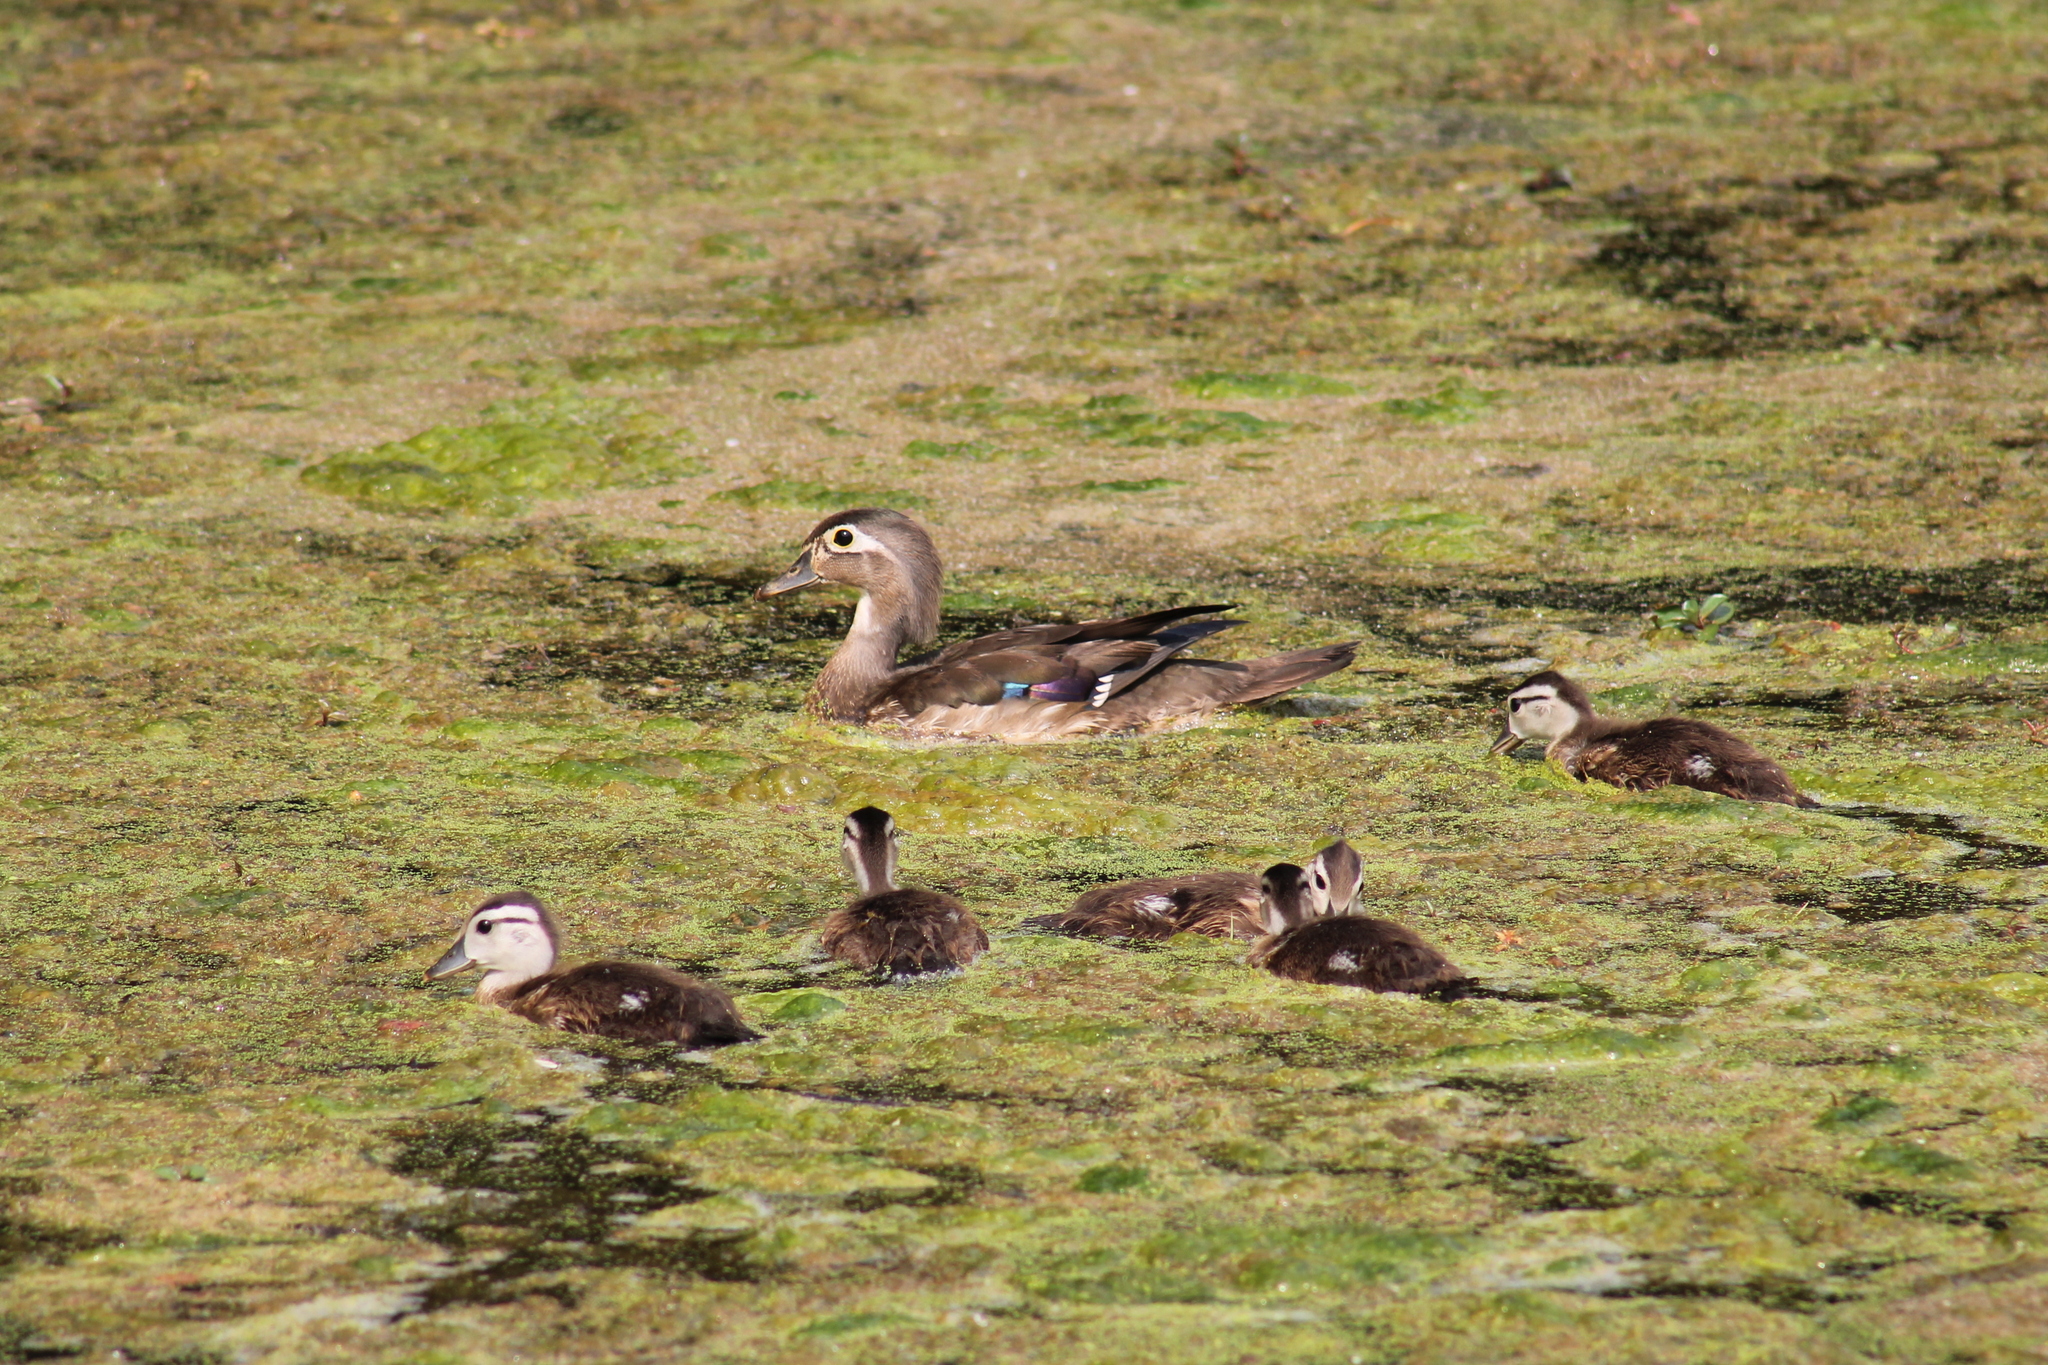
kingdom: Animalia
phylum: Chordata
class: Aves
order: Anseriformes
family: Anatidae
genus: Aix
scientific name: Aix sponsa
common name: Wood duck
